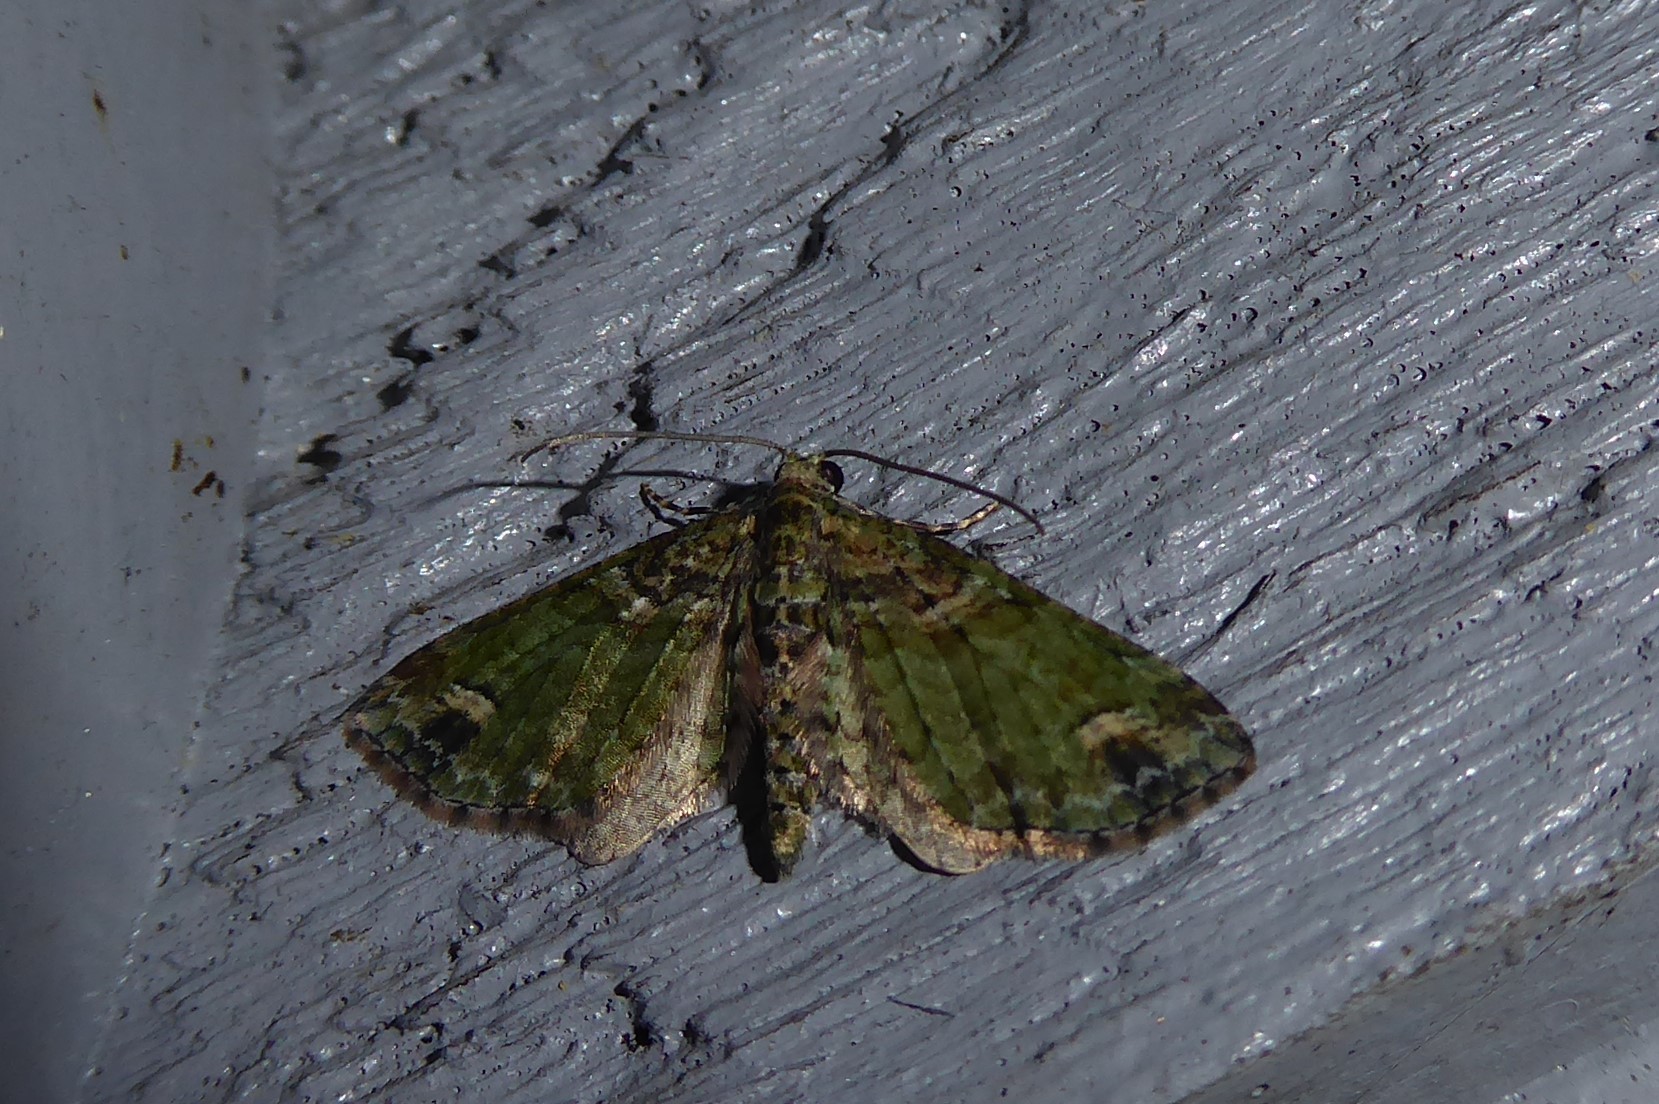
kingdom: Animalia
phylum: Arthropoda
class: Insecta
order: Lepidoptera
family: Geometridae
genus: Idaea
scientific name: Idaea mutanda
